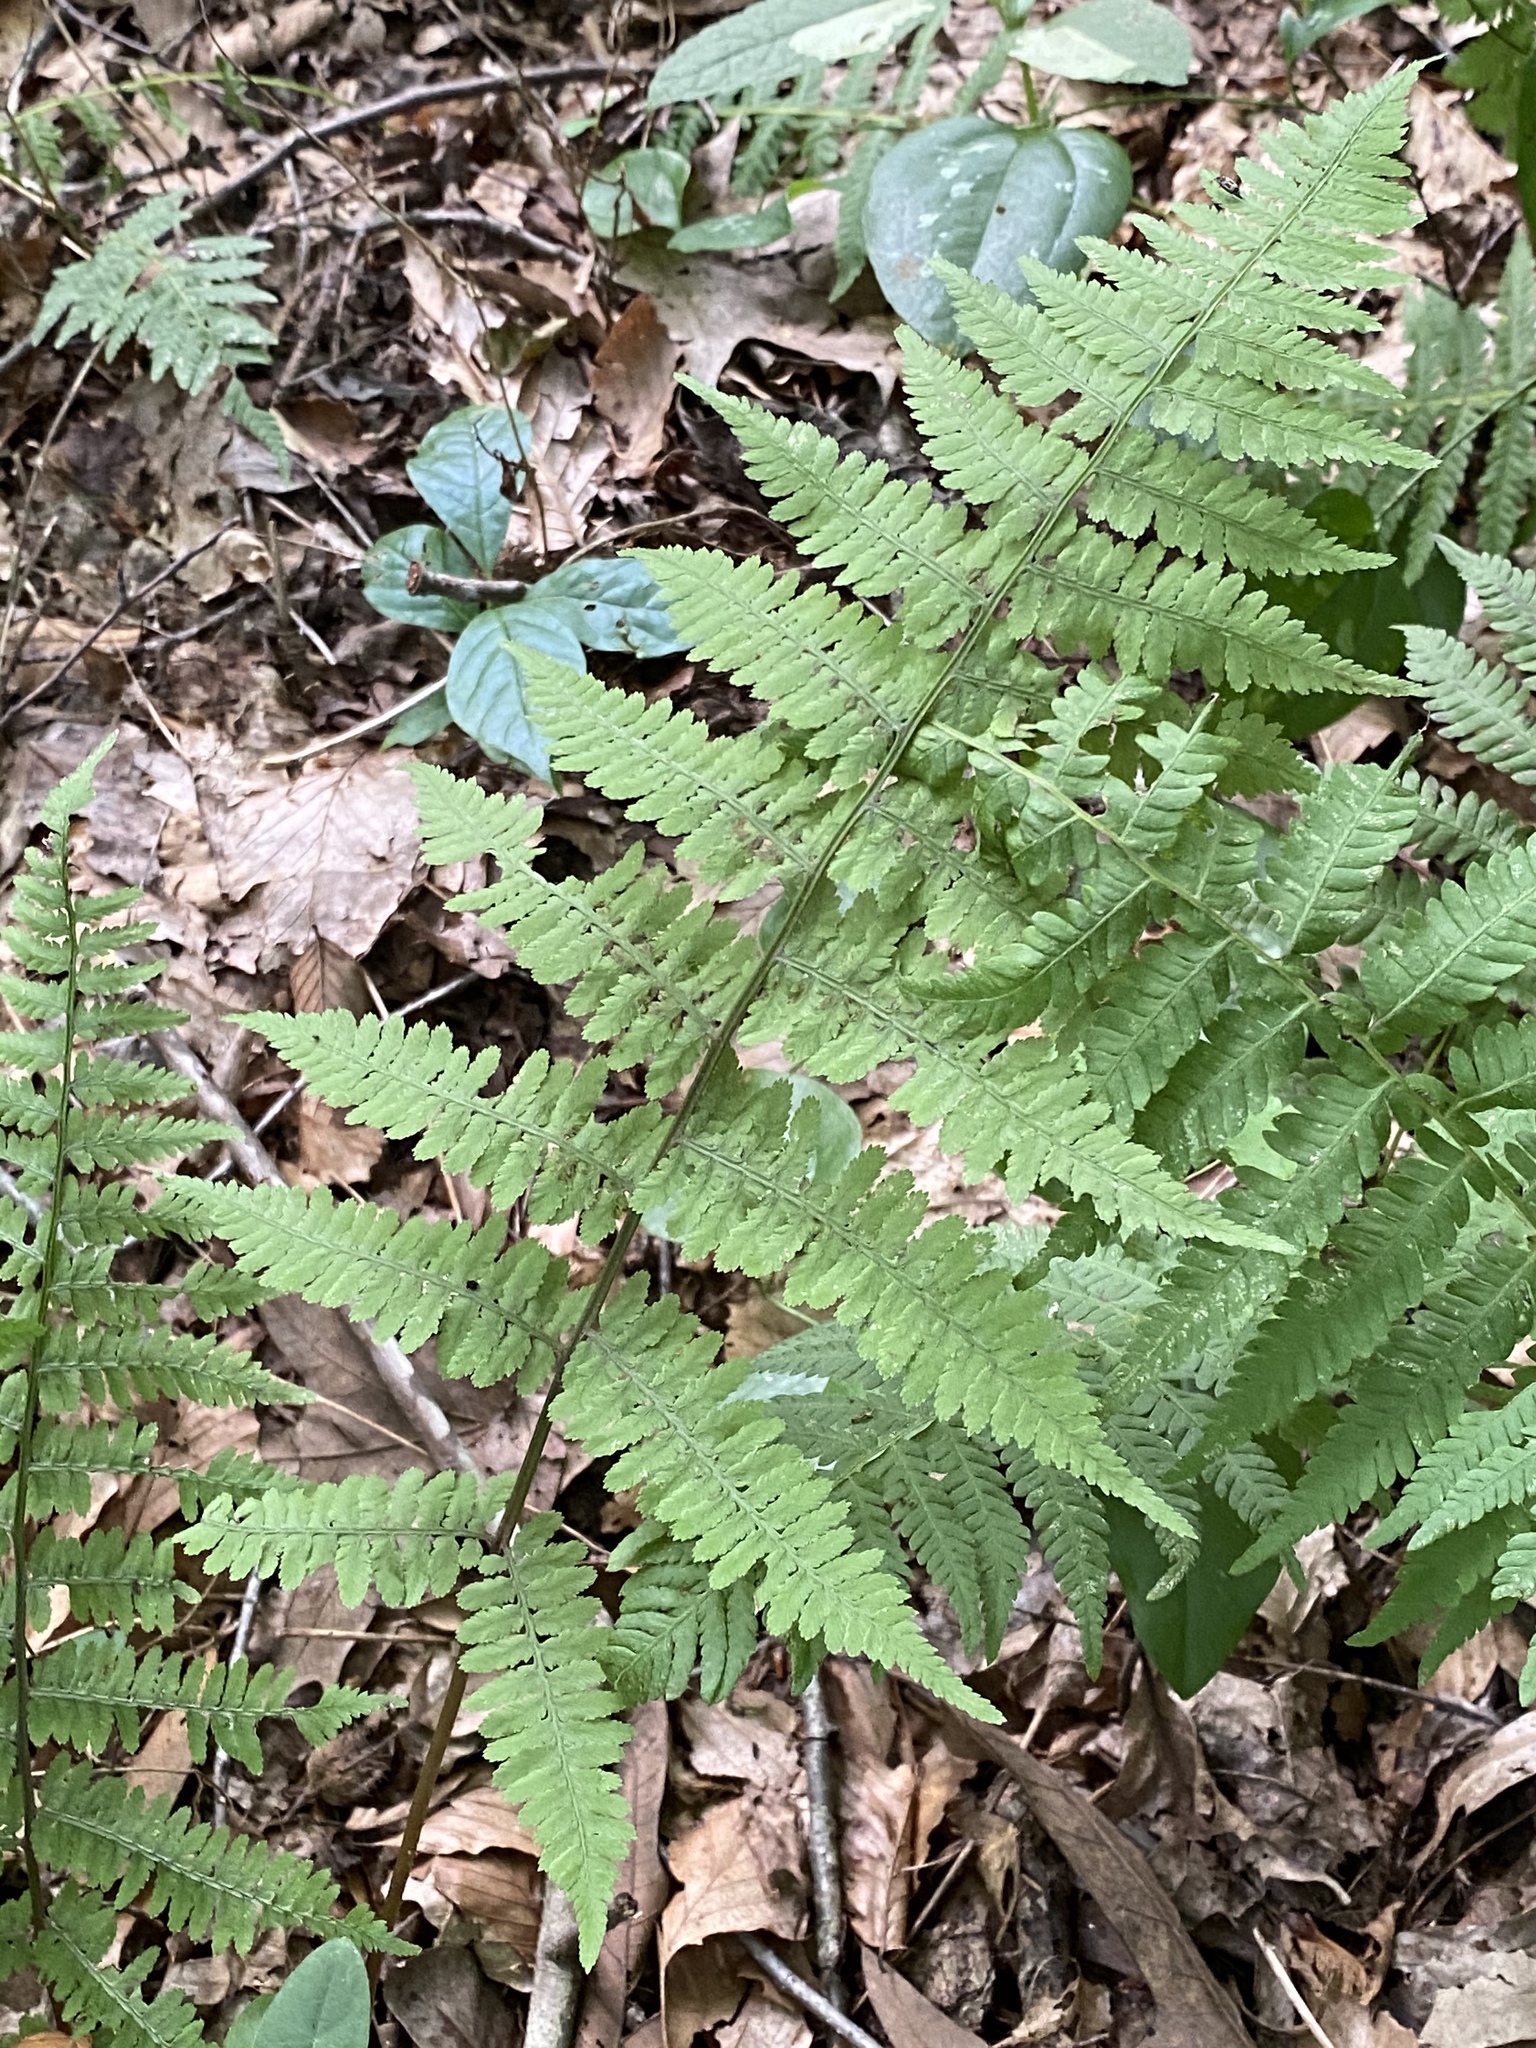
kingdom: Plantae
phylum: Tracheophyta
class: Polypodiopsida
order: Polypodiales
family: Athyriaceae
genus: Athyrium
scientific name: Athyrium asplenioides
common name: Southern lady fern
